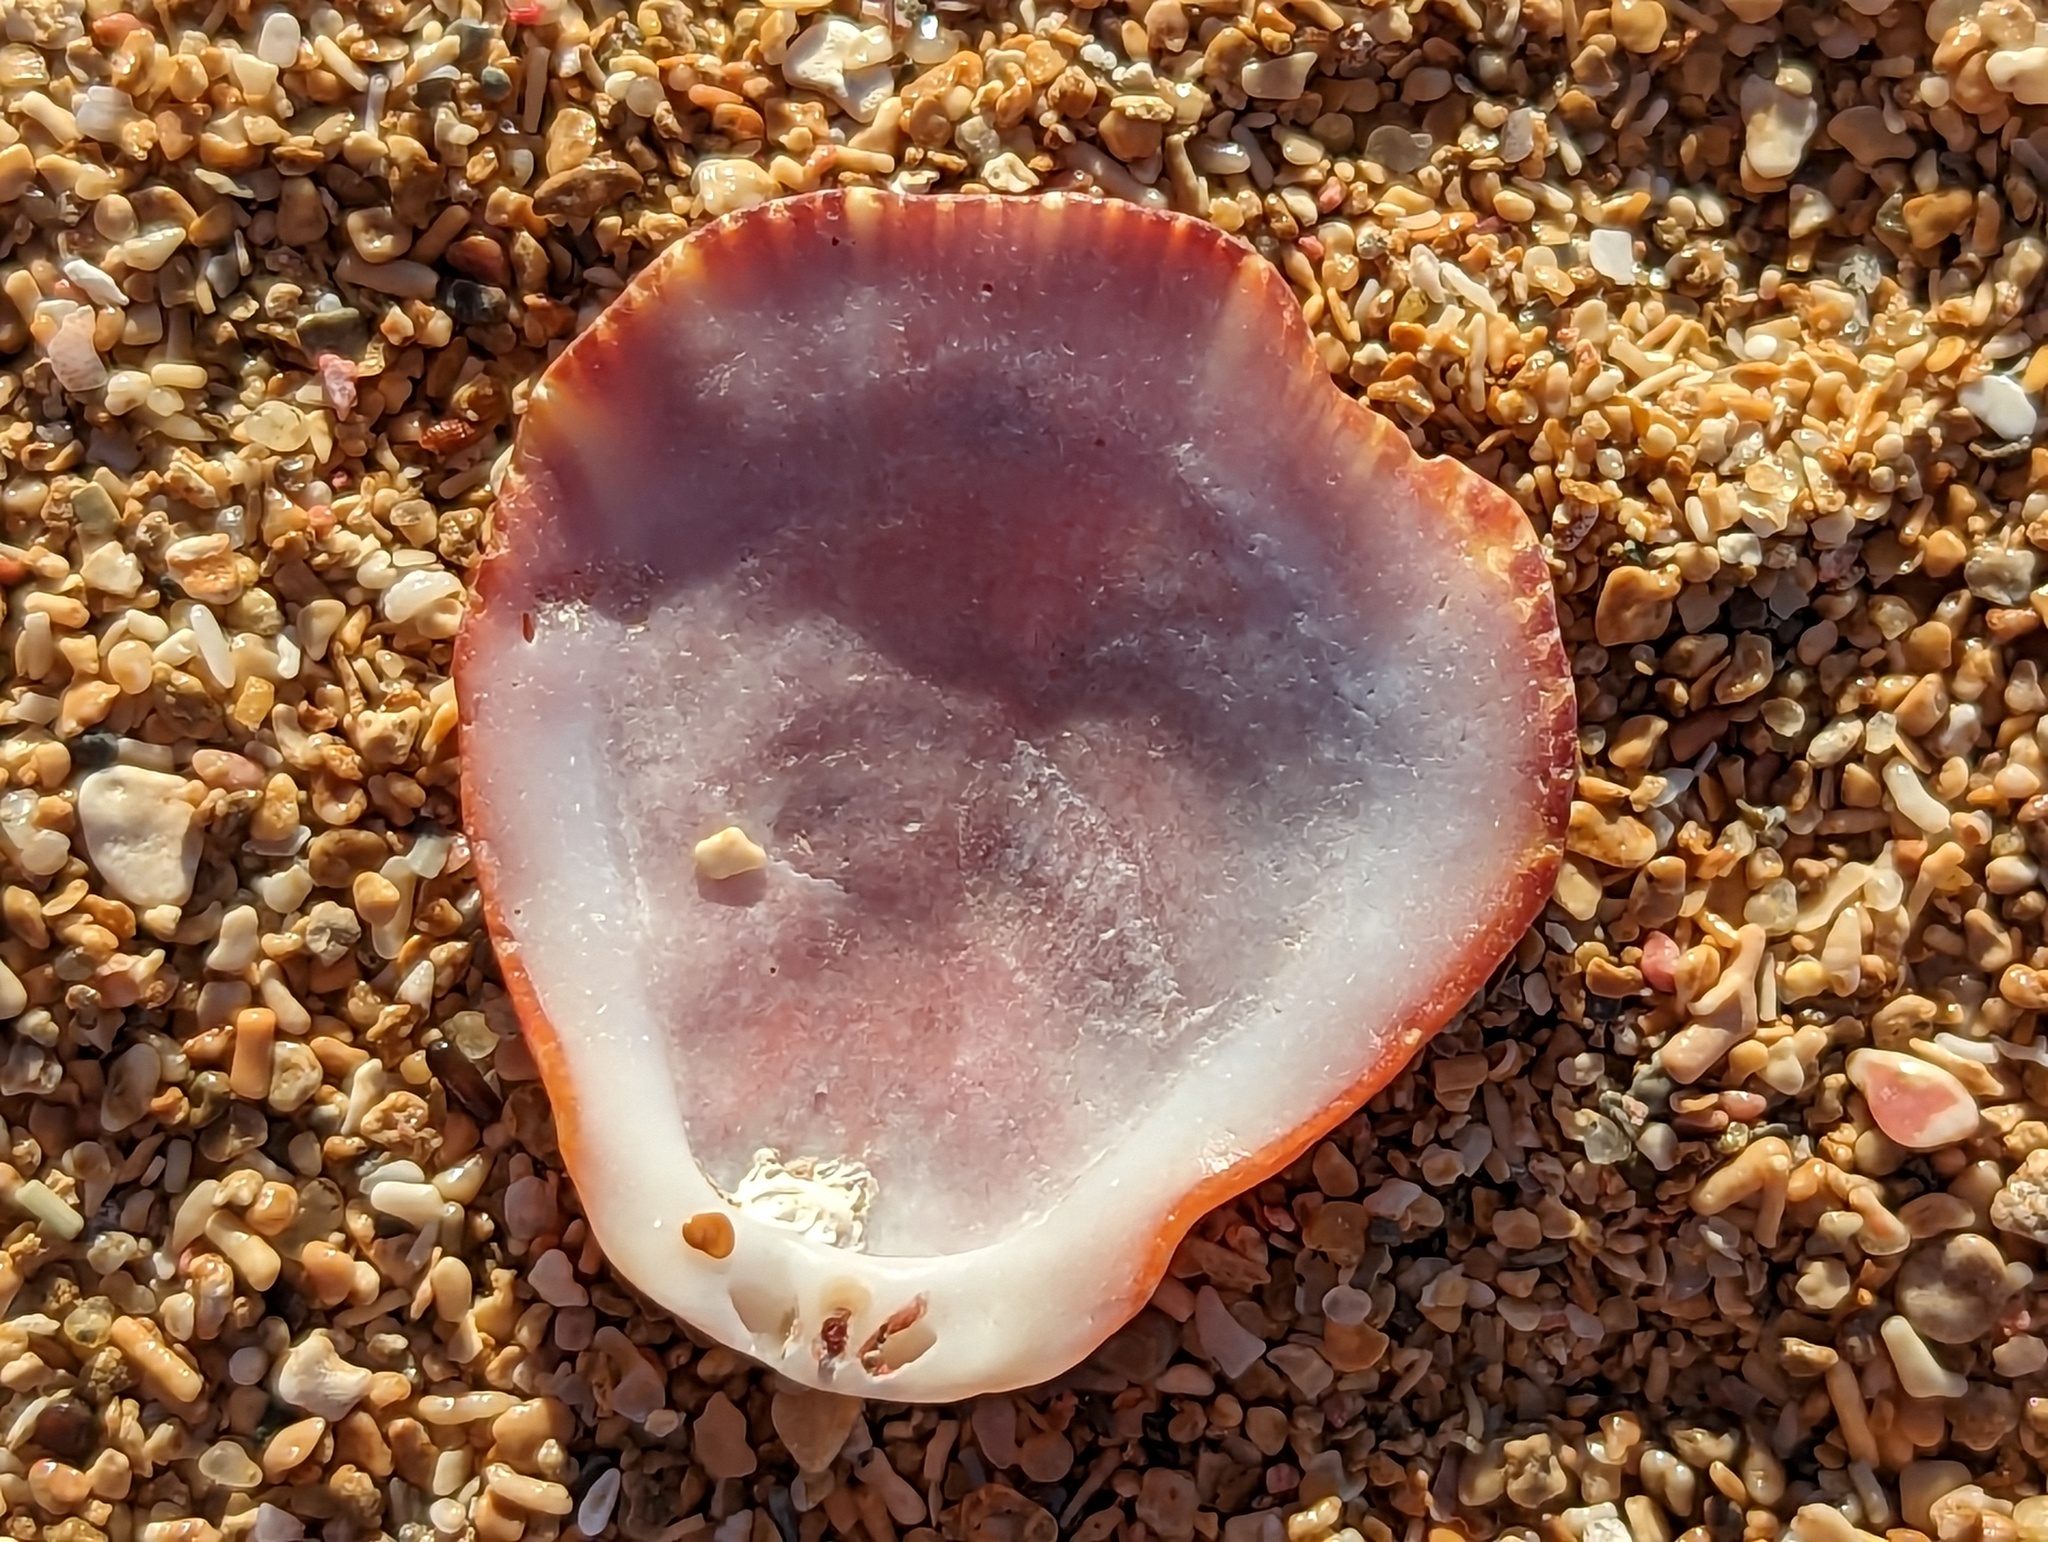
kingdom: Animalia
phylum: Mollusca
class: Bivalvia
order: Pectinida
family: Spondylidae
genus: Spondylus
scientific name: Spondylus tenuis
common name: Digitate thorny oyster
